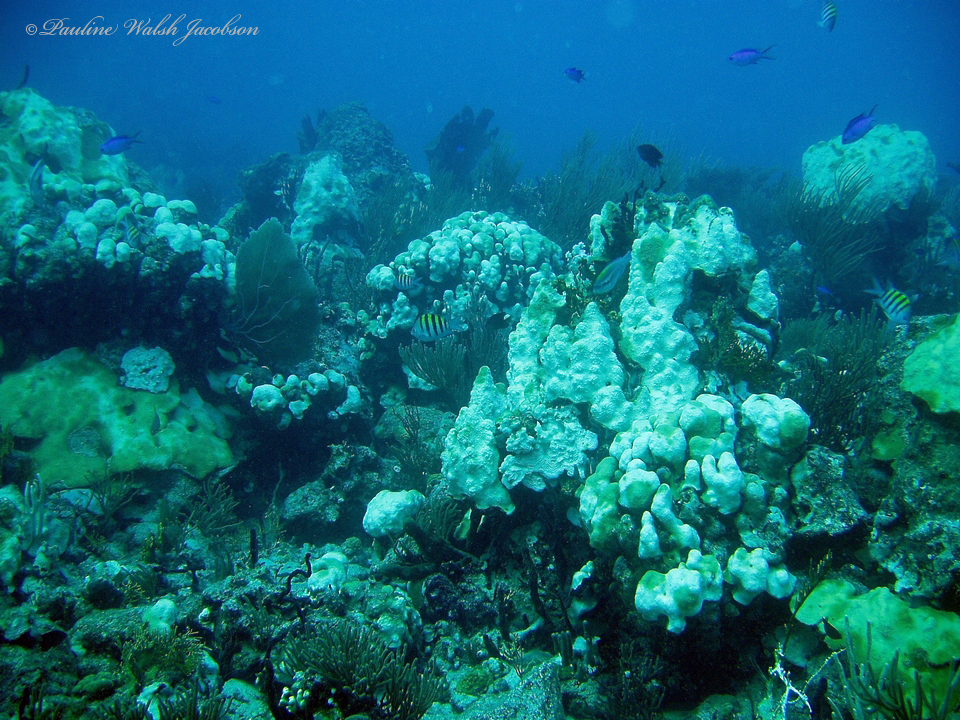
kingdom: Animalia
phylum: Cnidaria
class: Anthozoa
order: Scleractinia
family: Merulinidae
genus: Orbicella
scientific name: Orbicella annularis
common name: Boulder star coral
